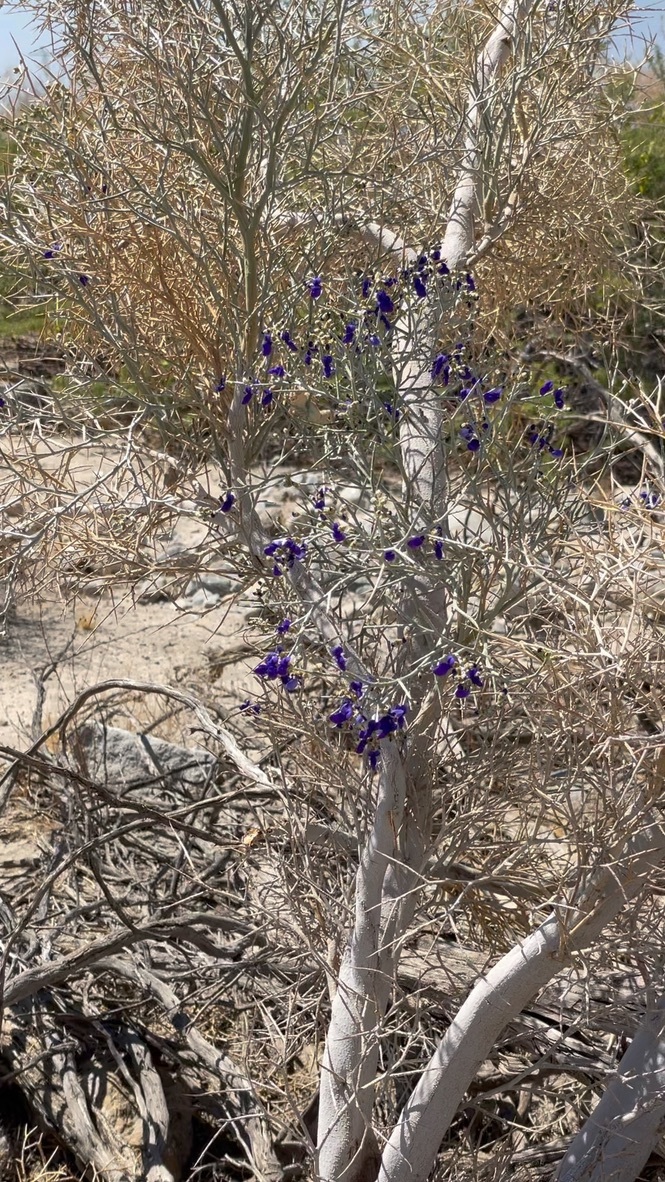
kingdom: Plantae
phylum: Tracheophyta
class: Magnoliopsida
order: Fabales
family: Fabaceae
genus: Psorothamnus
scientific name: Psorothamnus spinosus
